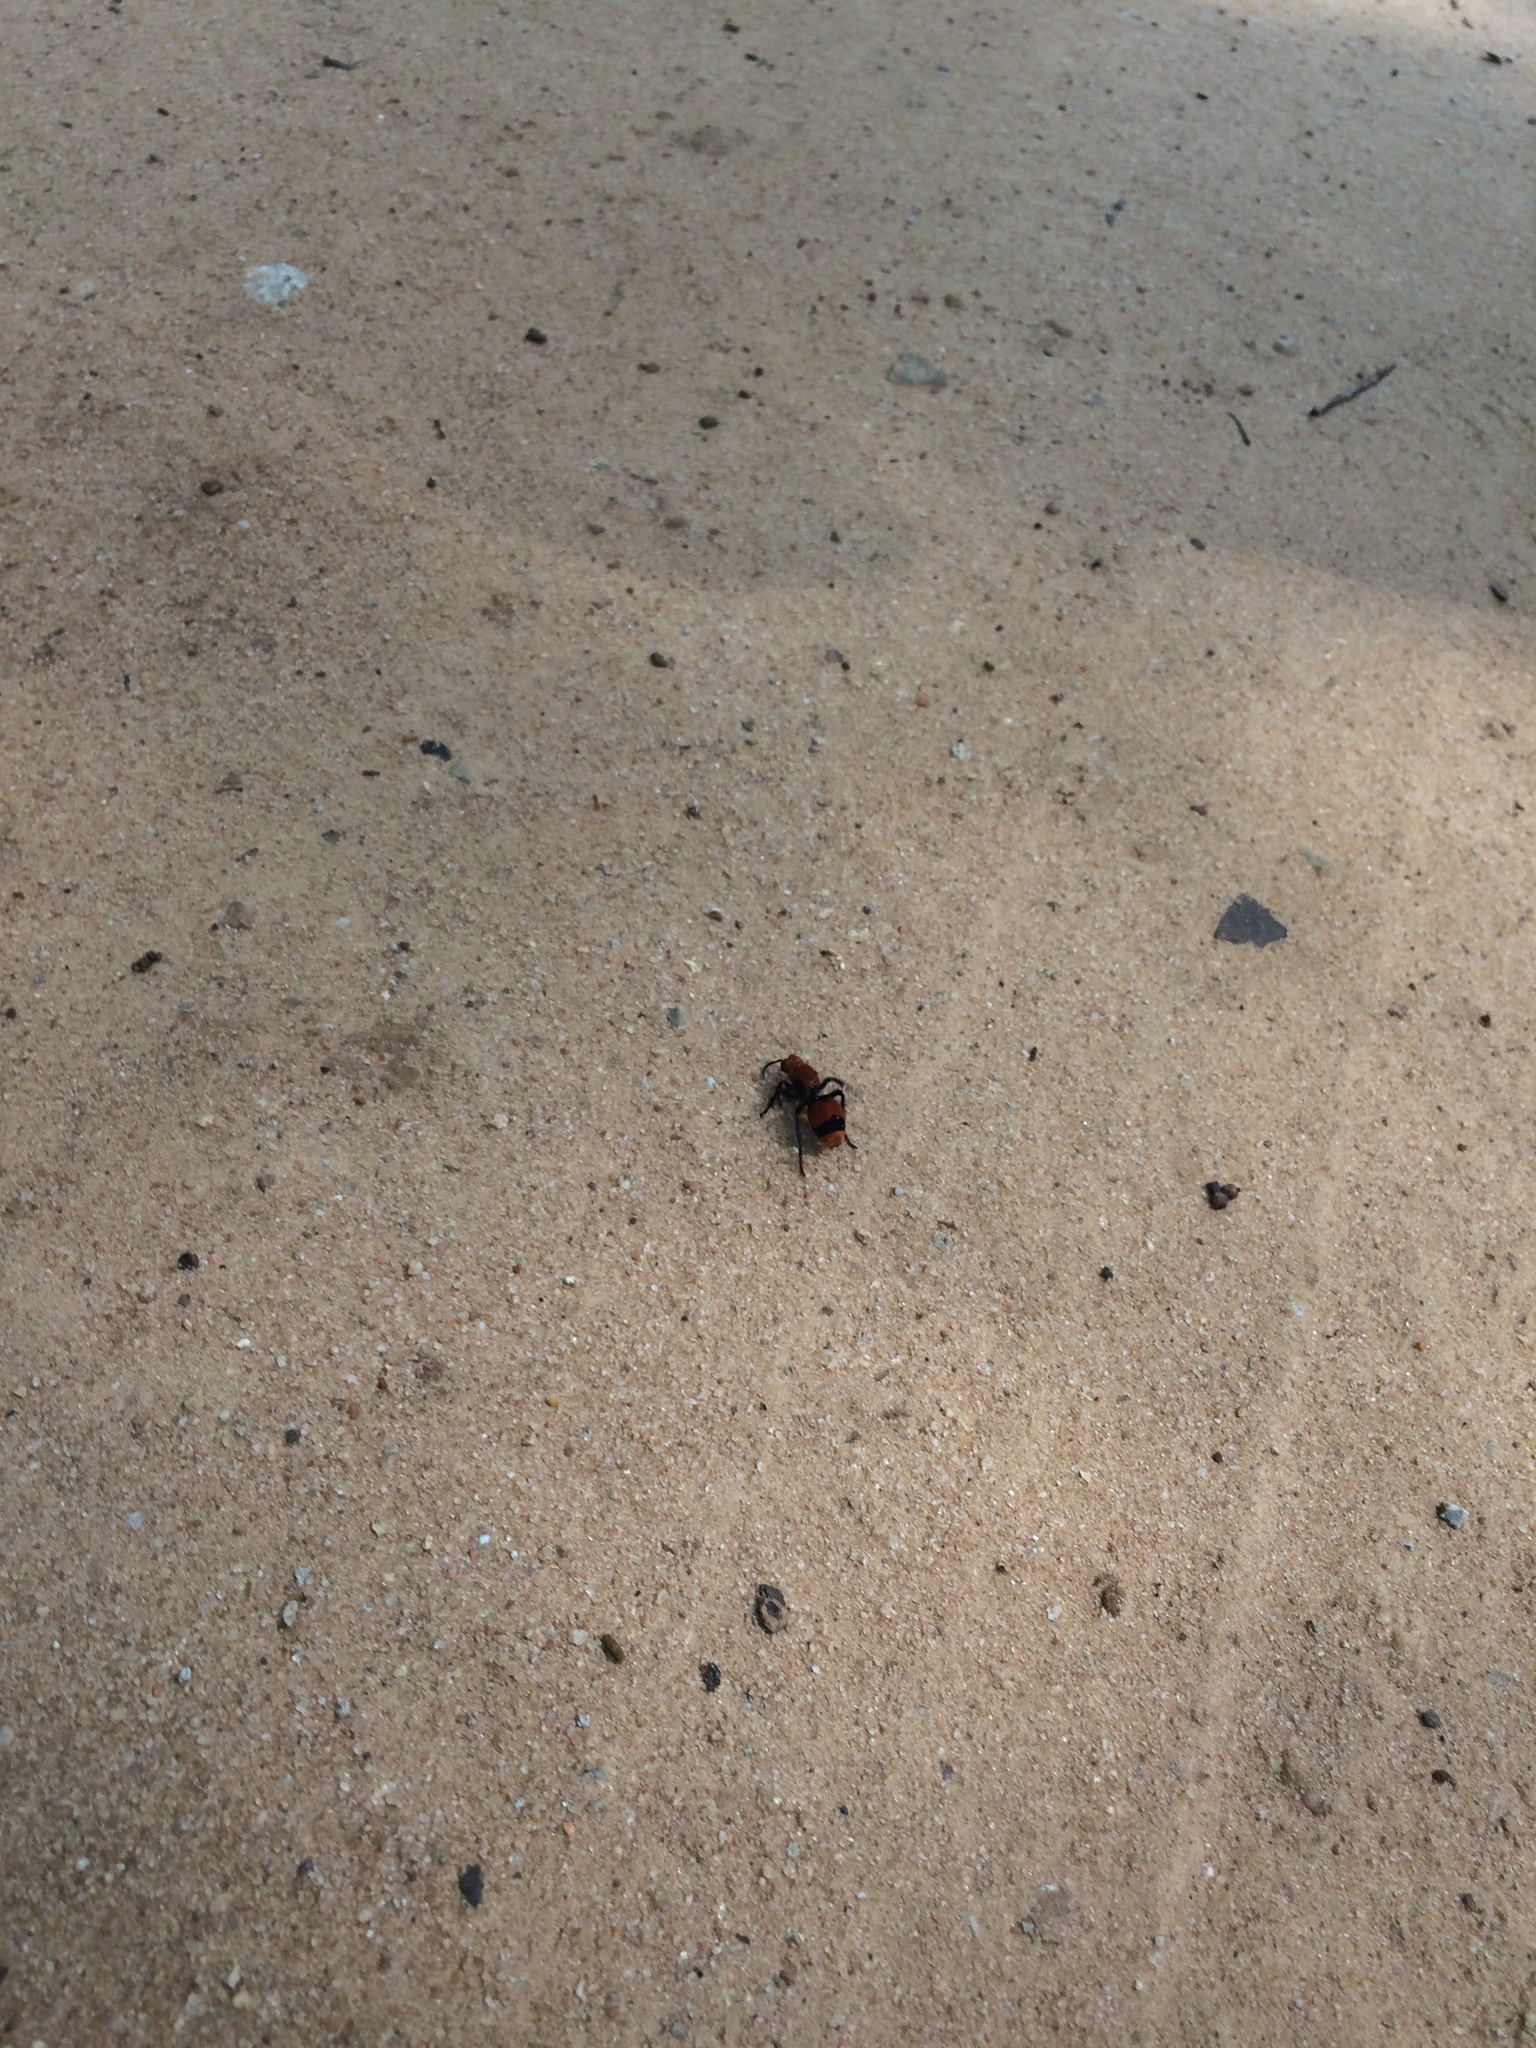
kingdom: Animalia
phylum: Arthropoda
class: Insecta
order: Hymenoptera
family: Mutillidae
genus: Dasymutilla
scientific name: Dasymutilla occidentalis
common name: Common eastern velvet ant
